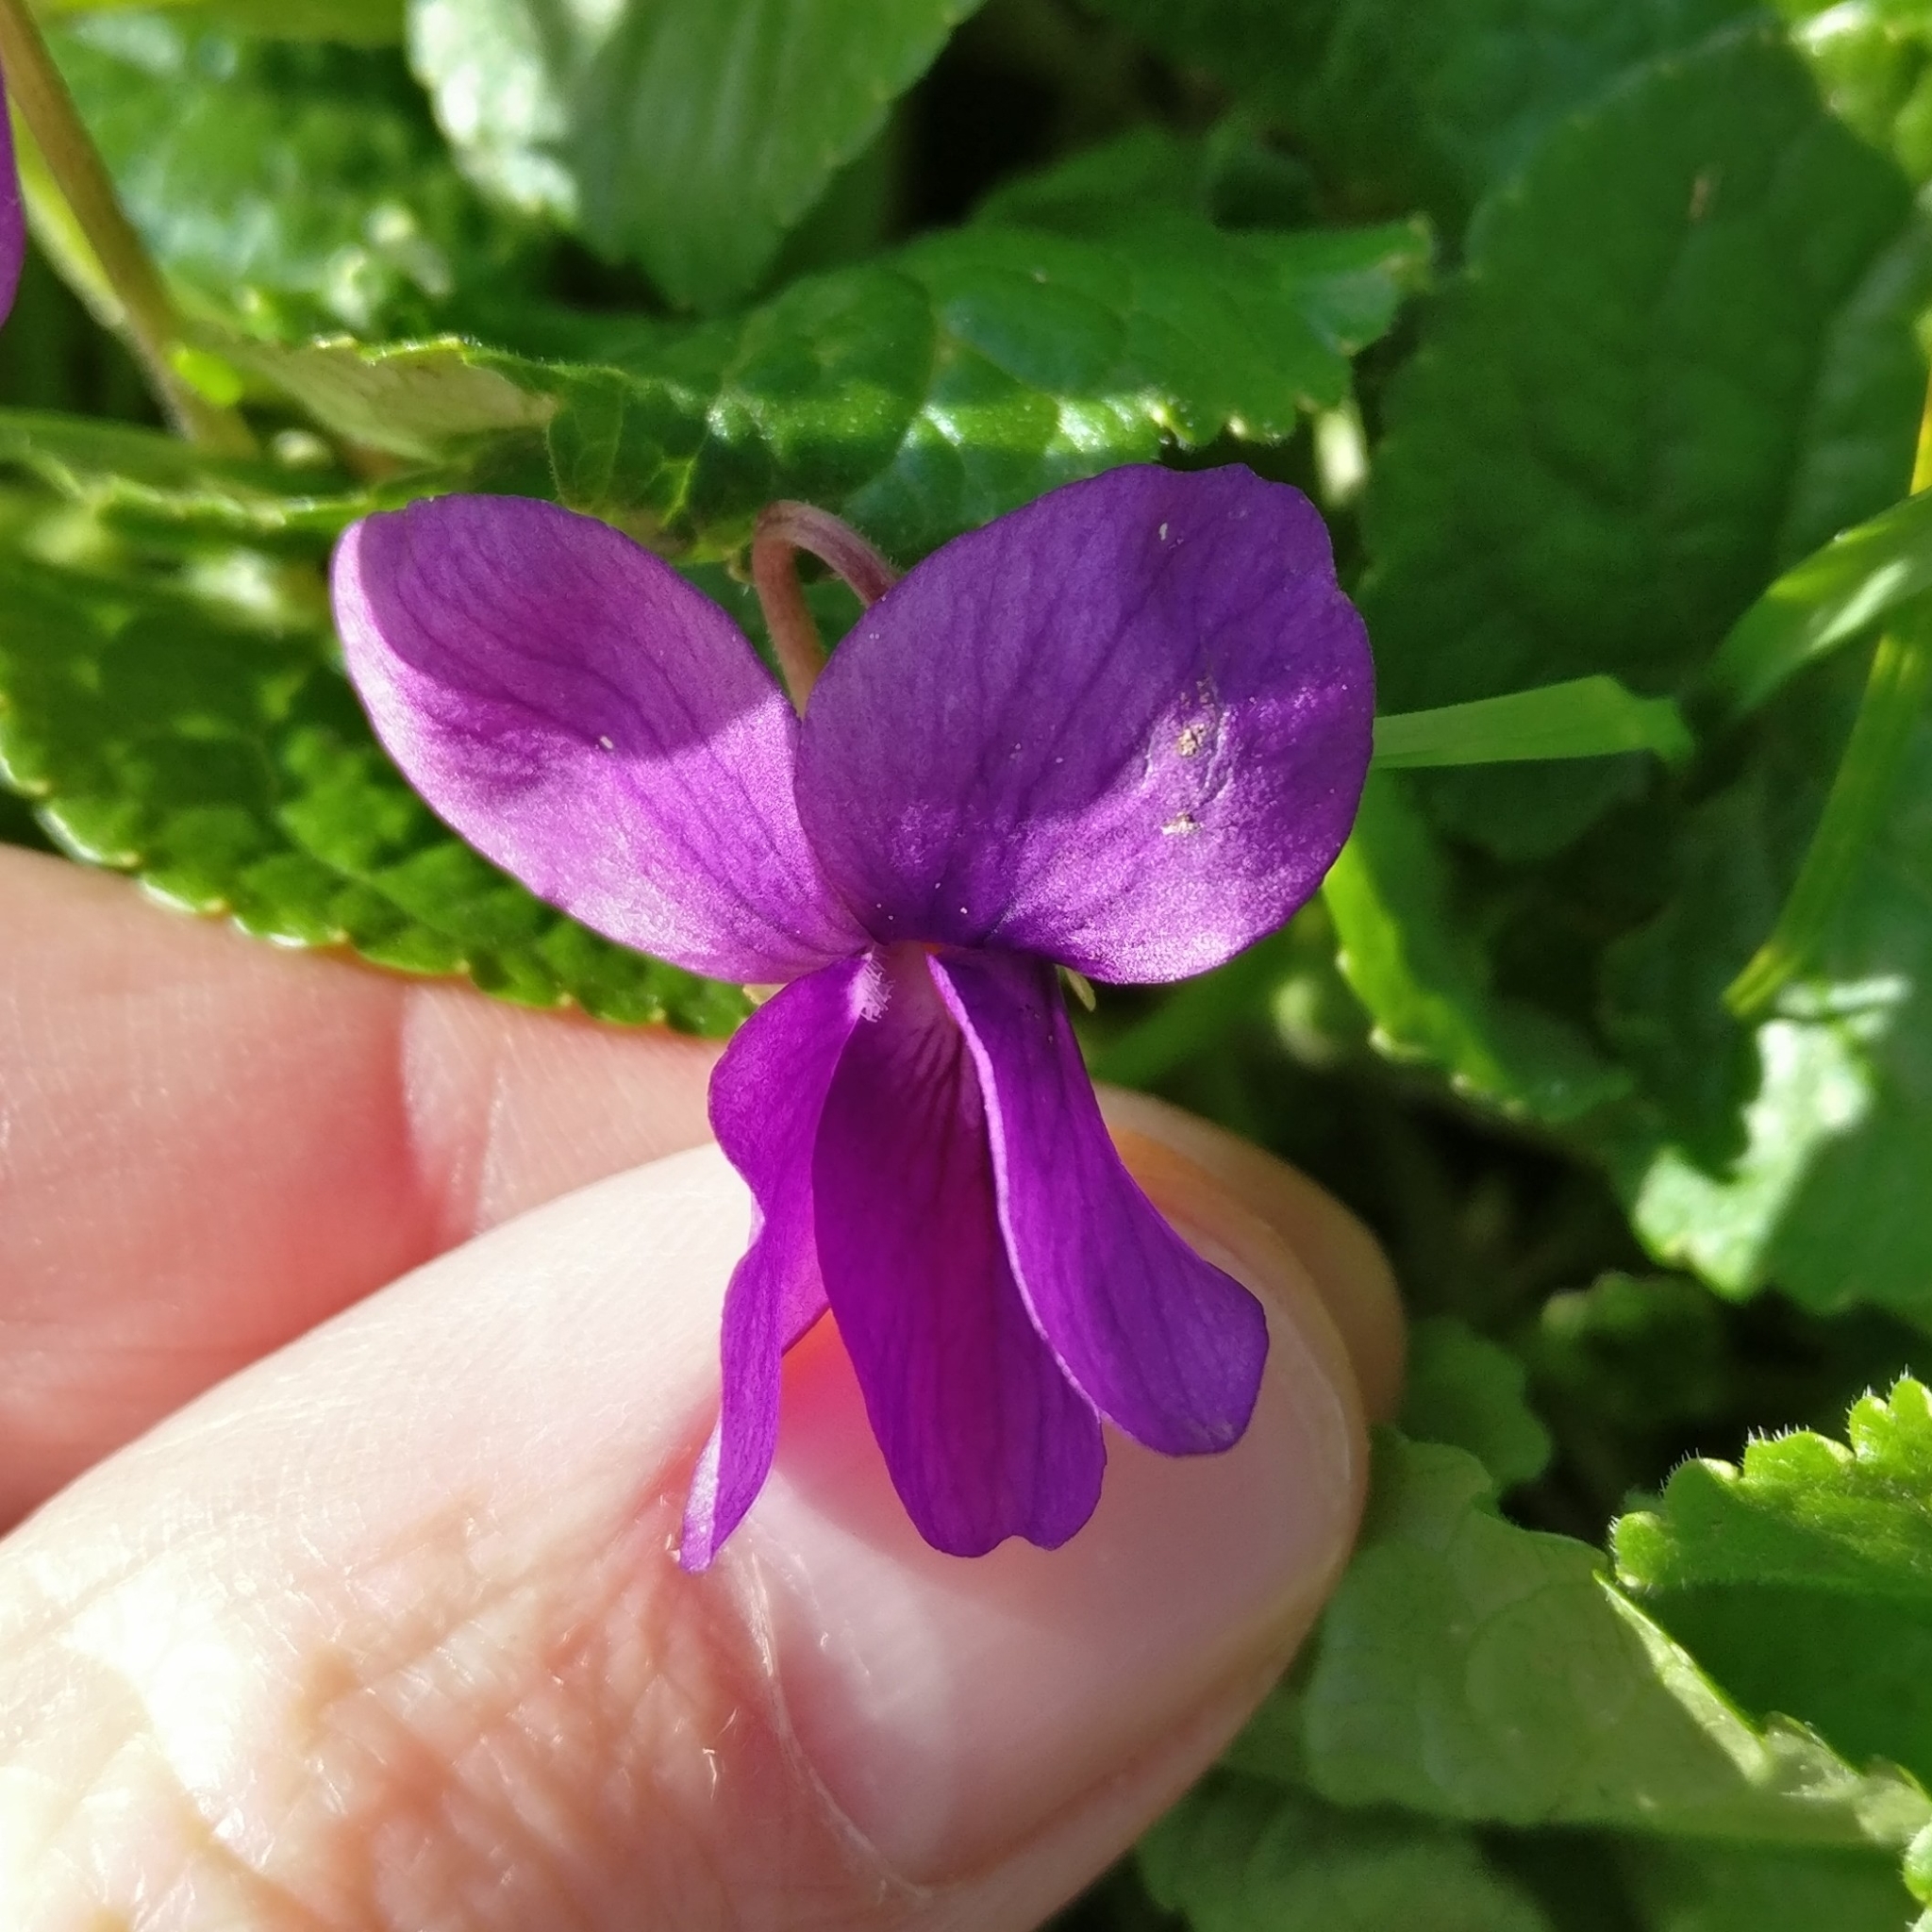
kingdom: Plantae
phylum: Tracheophyta
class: Magnoliopsida
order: Malpighiales
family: Violaceae
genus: Viola
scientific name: Viola odorata
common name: Sweet violet
